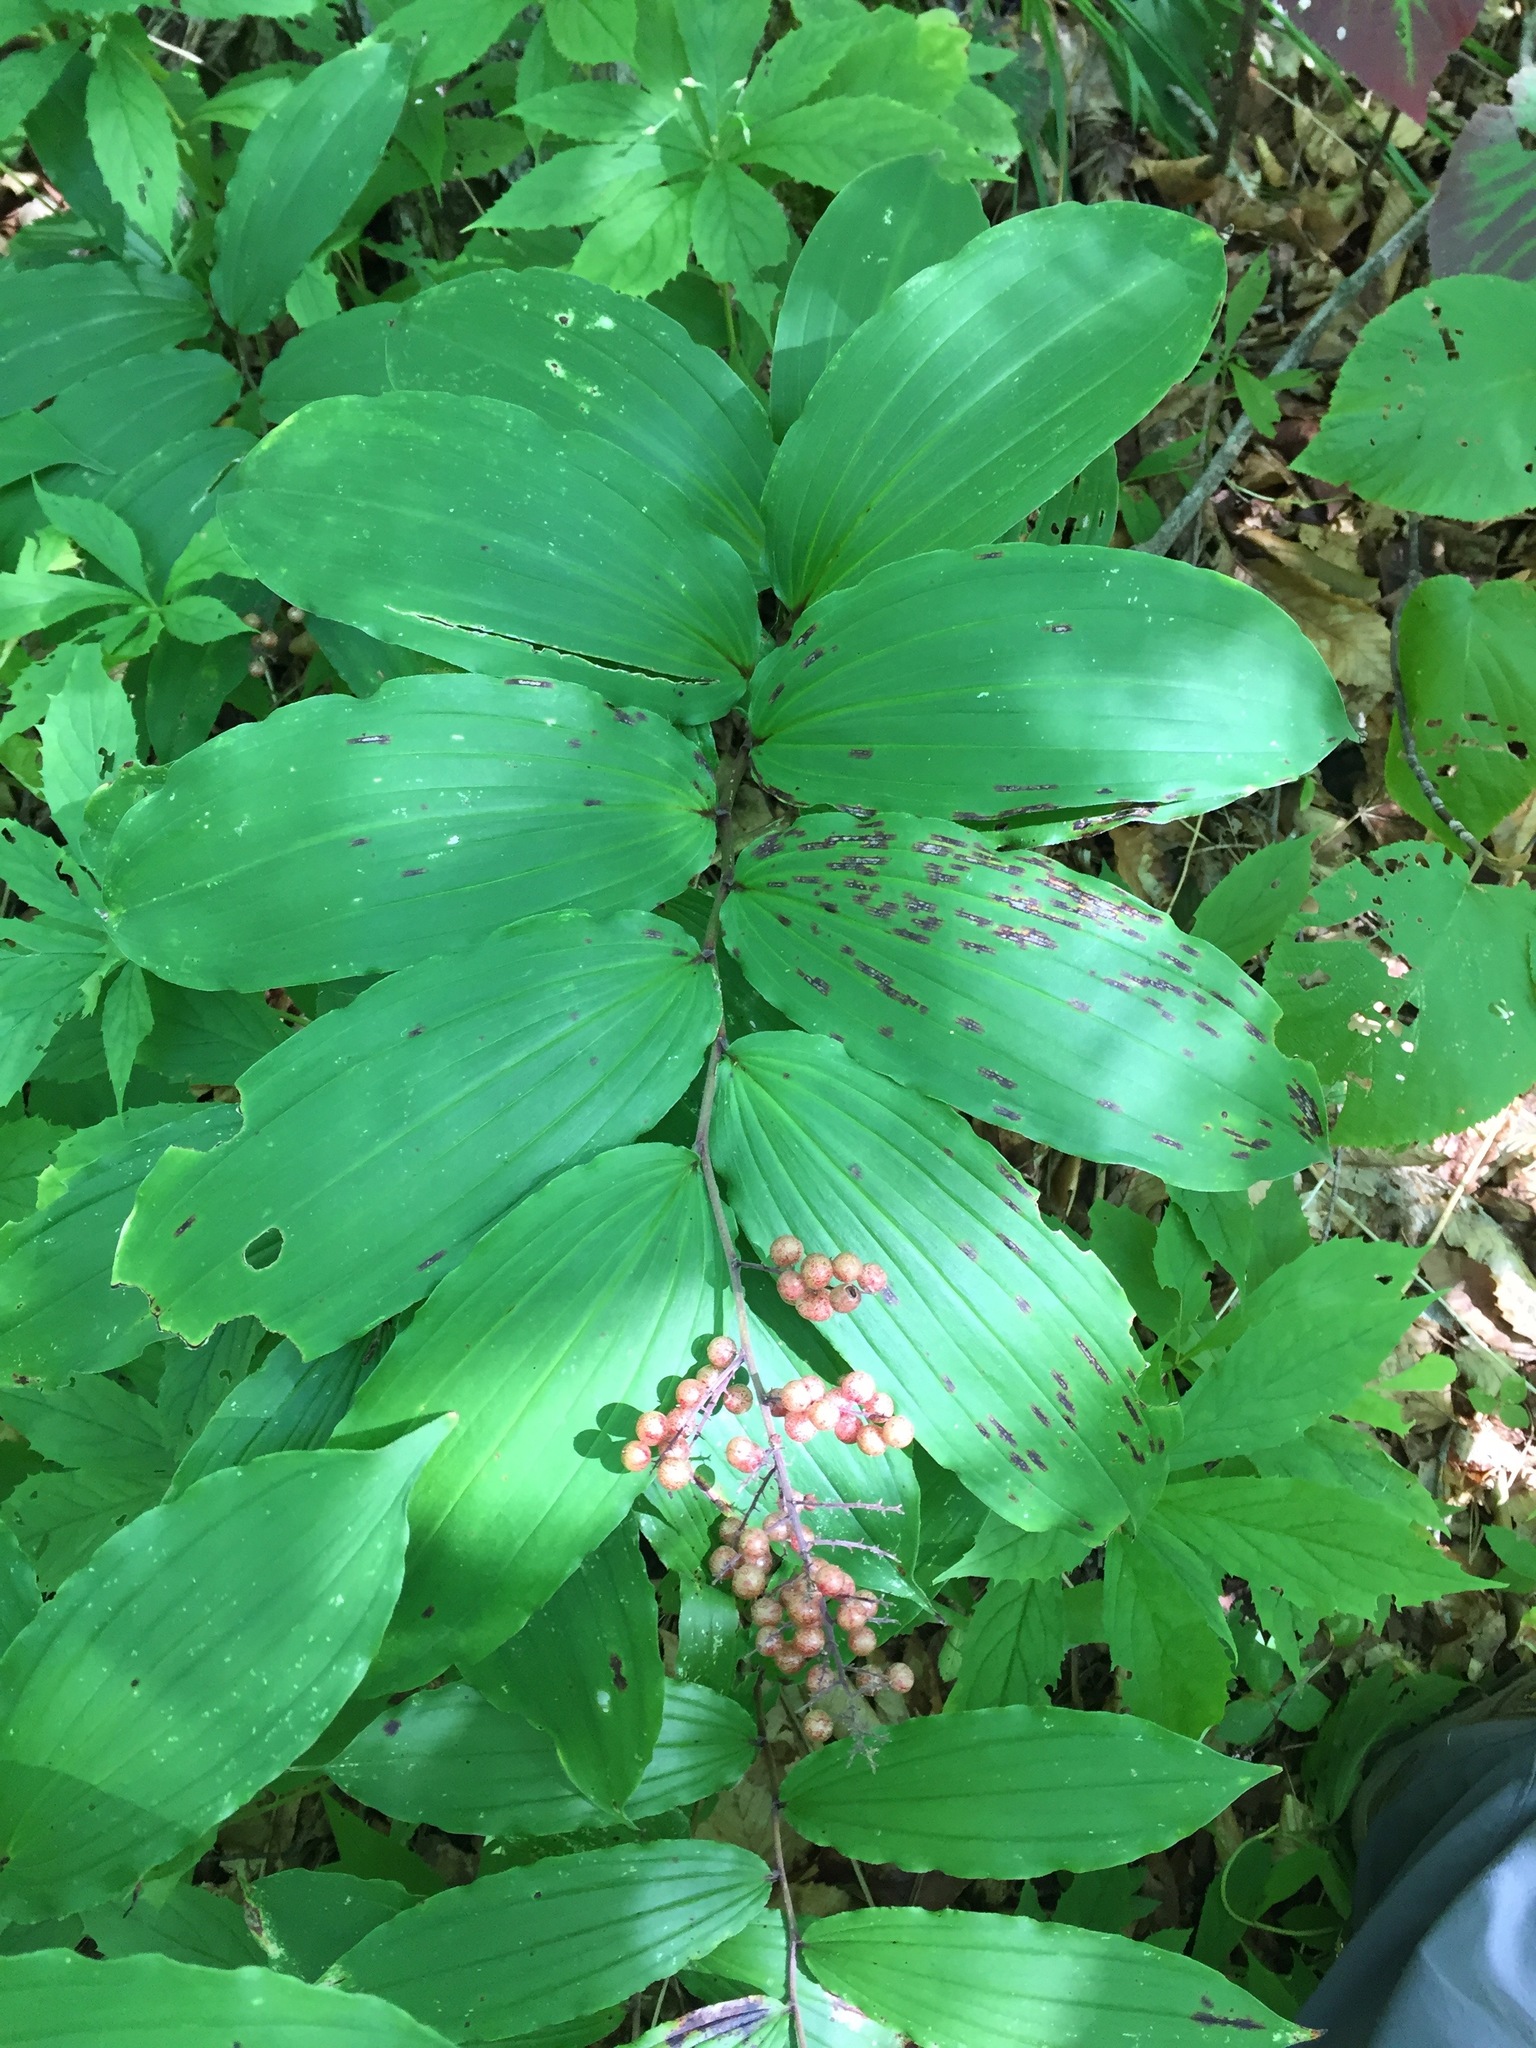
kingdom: Plantae
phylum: Tracheophyta
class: Liliopsida
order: Asparagales
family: Asparagaceae
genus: Maianthemum
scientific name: Maianthemum racemosum
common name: False spikenard
